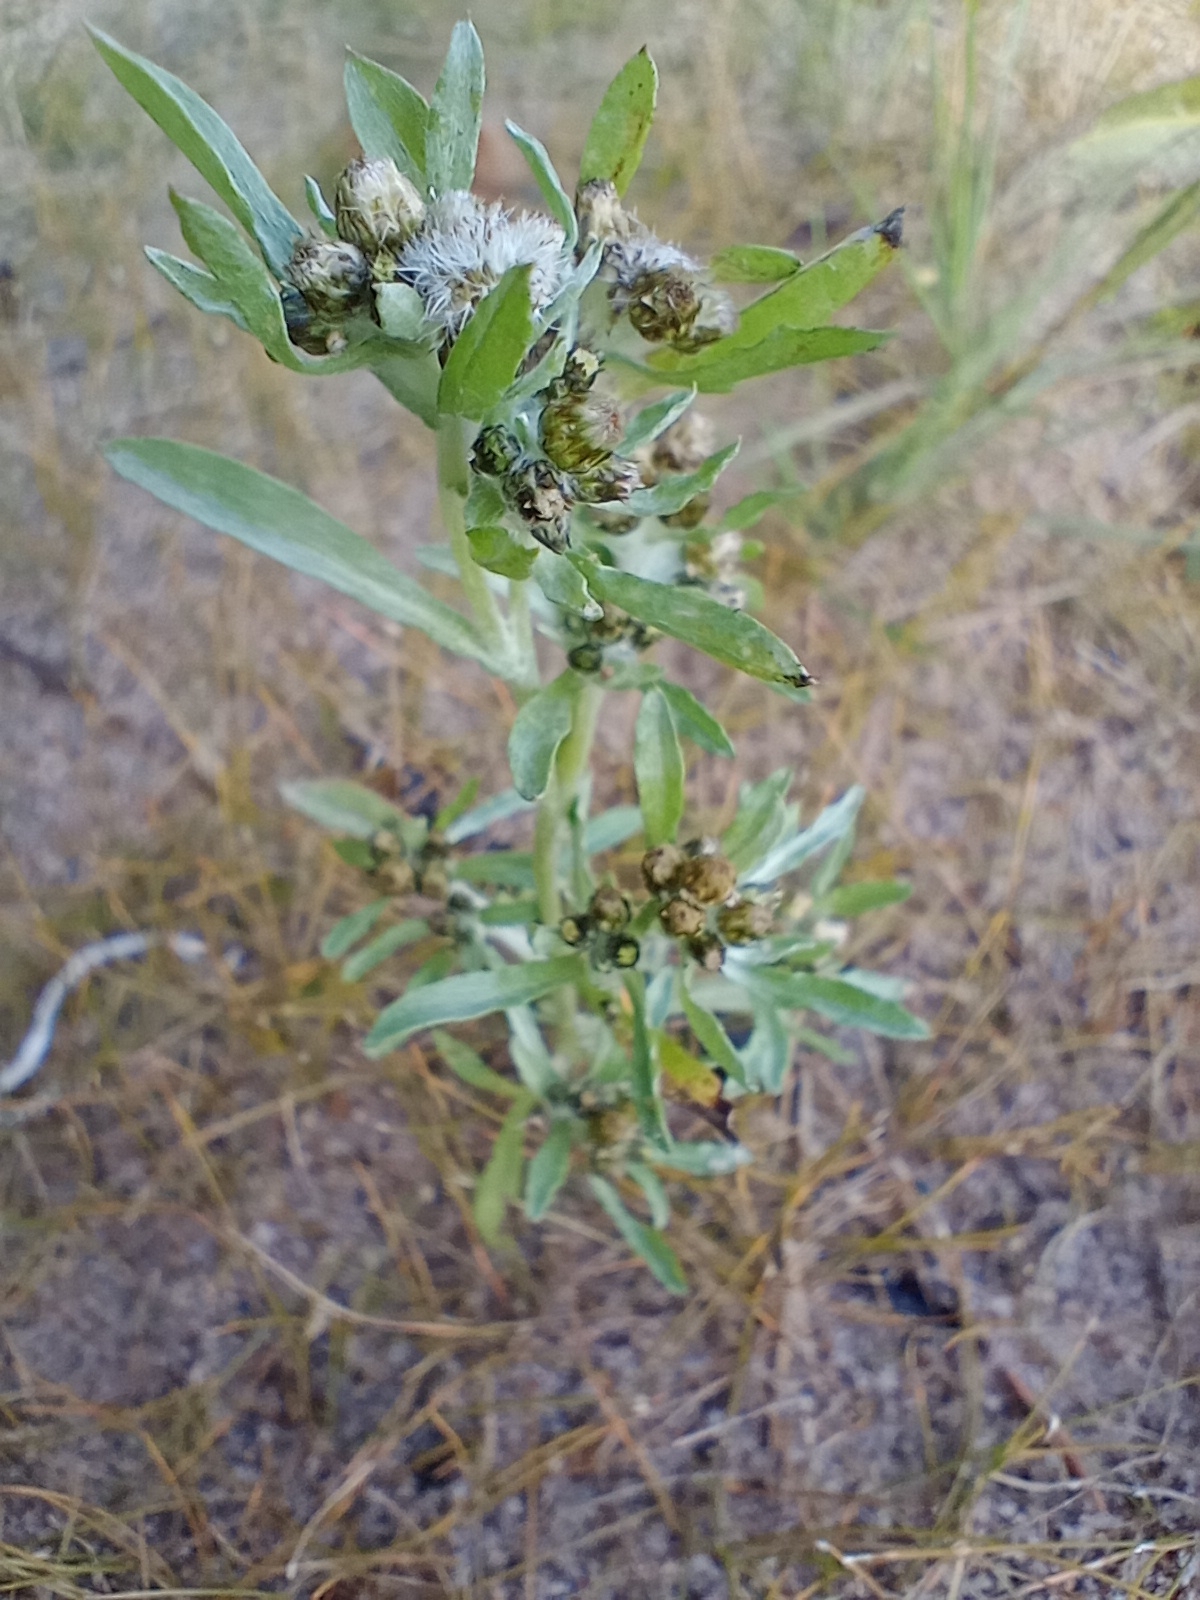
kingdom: Plantae
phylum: Tracheophyta
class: Magnoliopsida
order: Asterales
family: Asteraceae
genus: Gnaphalium
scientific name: Gnaphalium uliginosum
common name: Marsh cudweed
